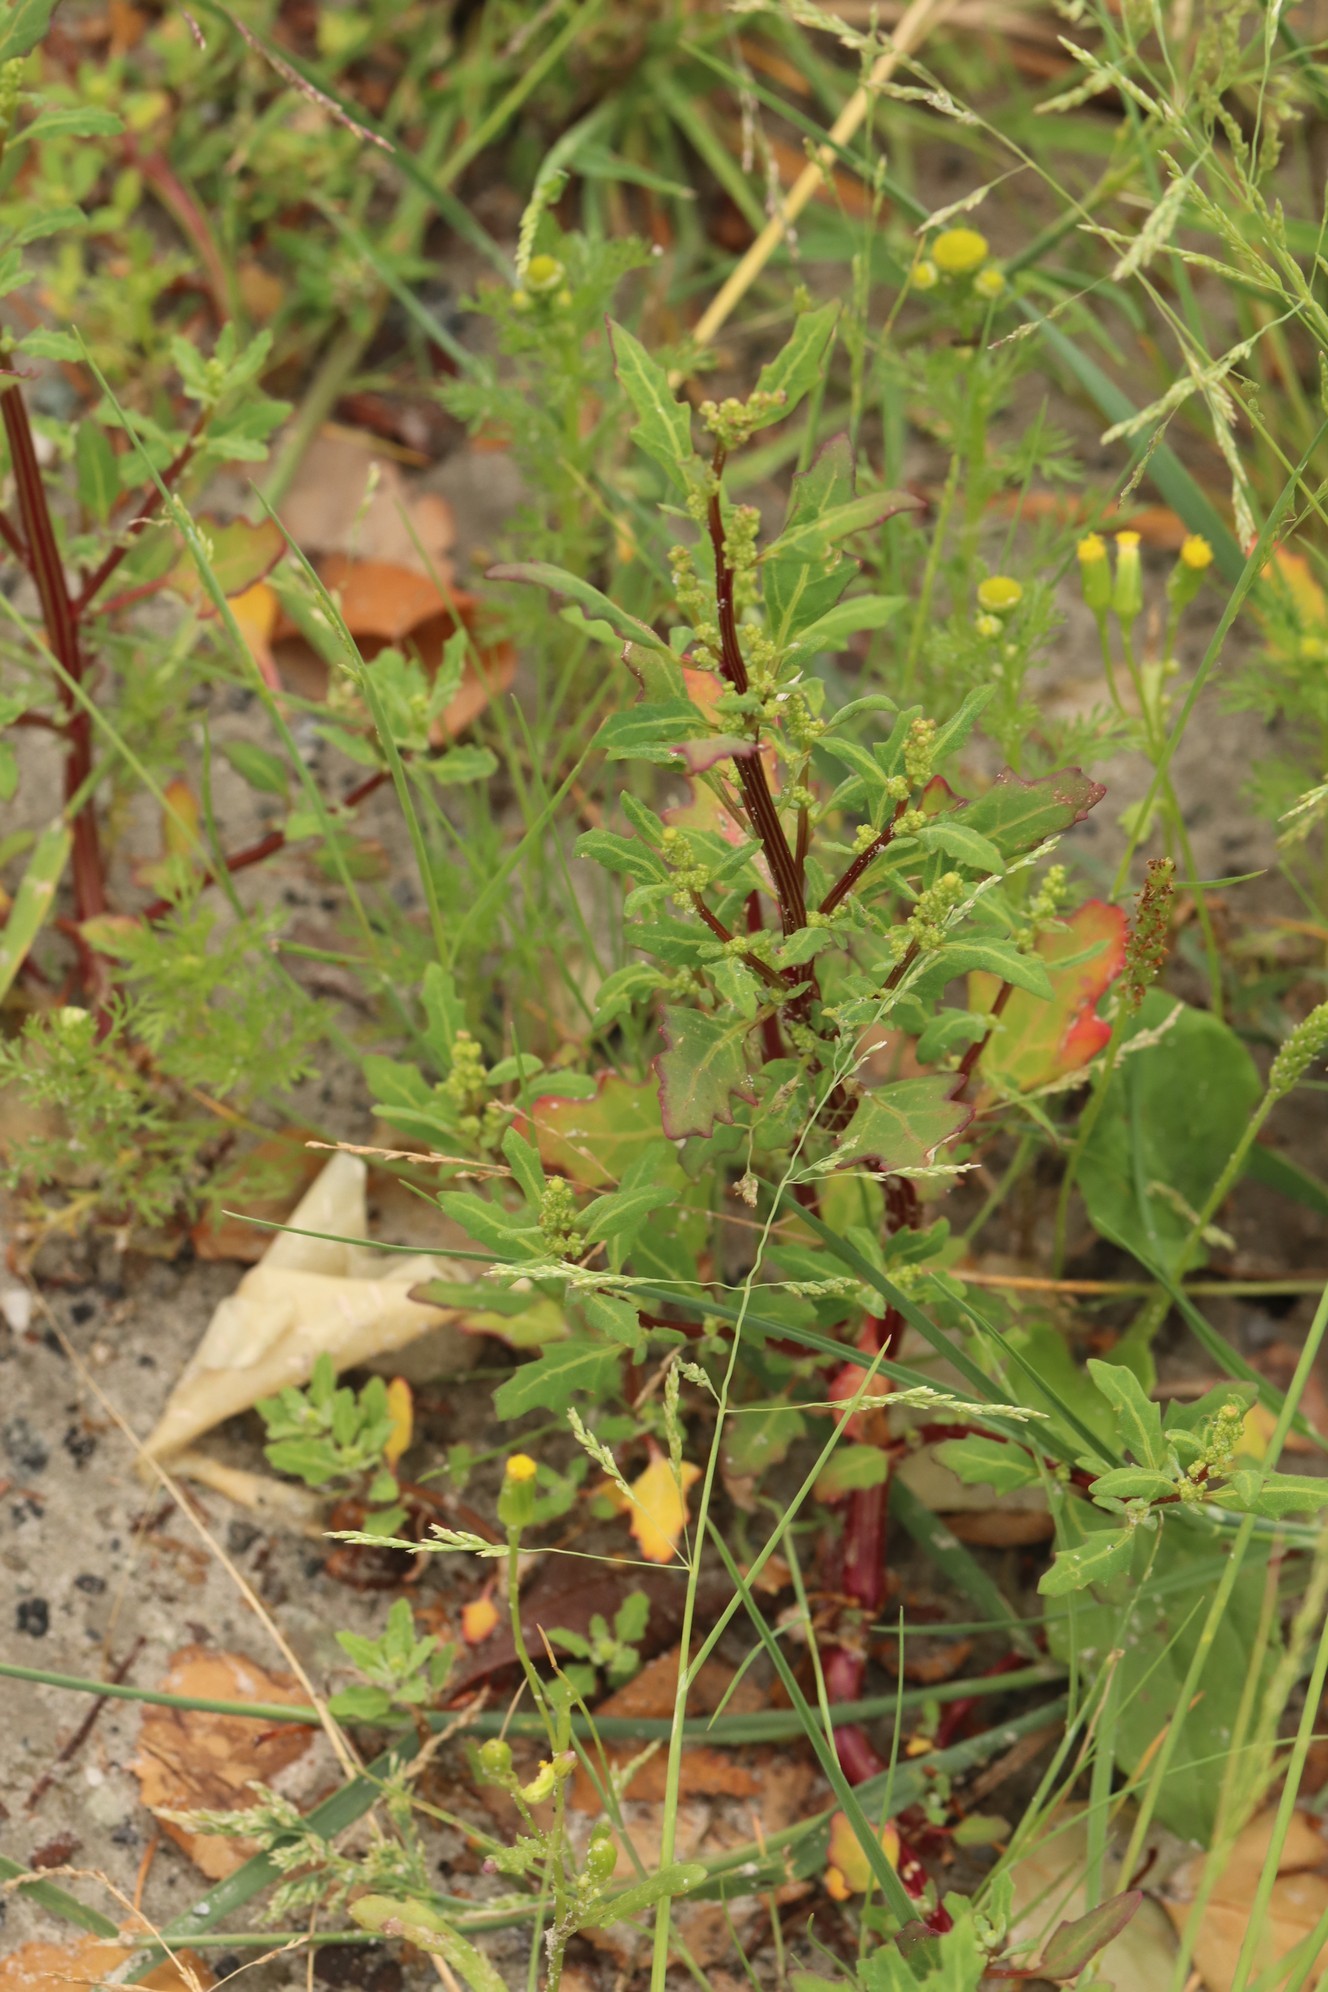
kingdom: Plantae
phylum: Tracheophyta
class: Magnoliopsida
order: Caryophyllales
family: Amaranthaceae
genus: Oxybasis
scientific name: Oxybasis glauca
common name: Glaucous goosefoot
